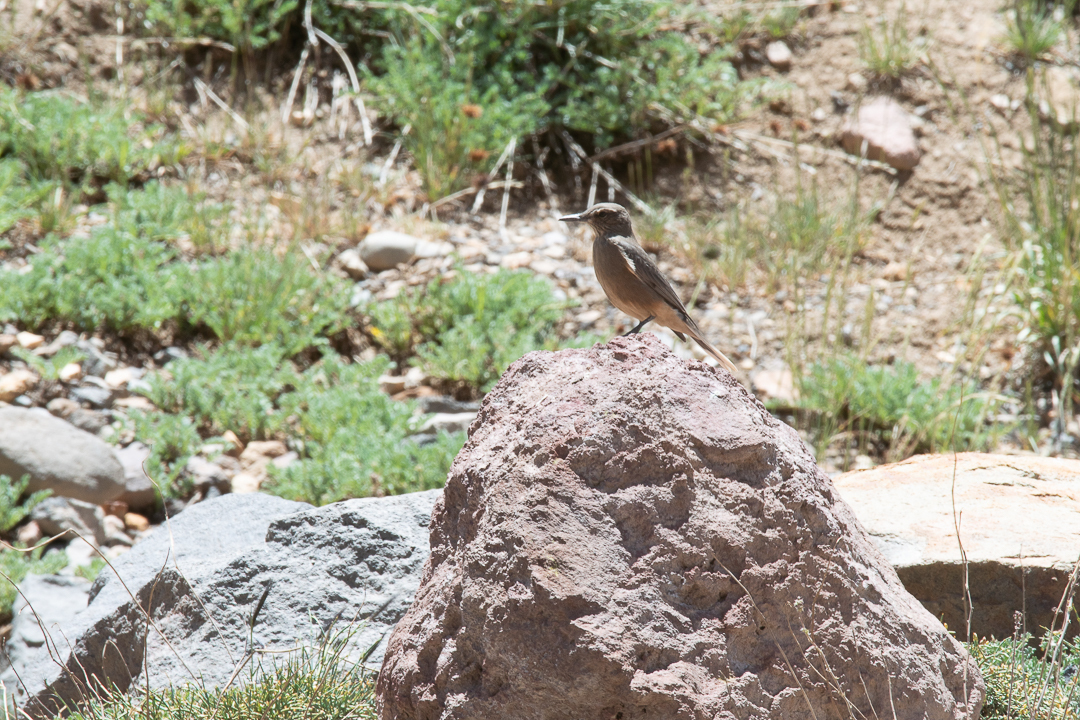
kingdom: Animalia
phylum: Chordata
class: Aves
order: Passeriformes
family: Tyrannidae
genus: Agriornis
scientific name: Agriornis montanus
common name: Black-billed shrike-tyrant
